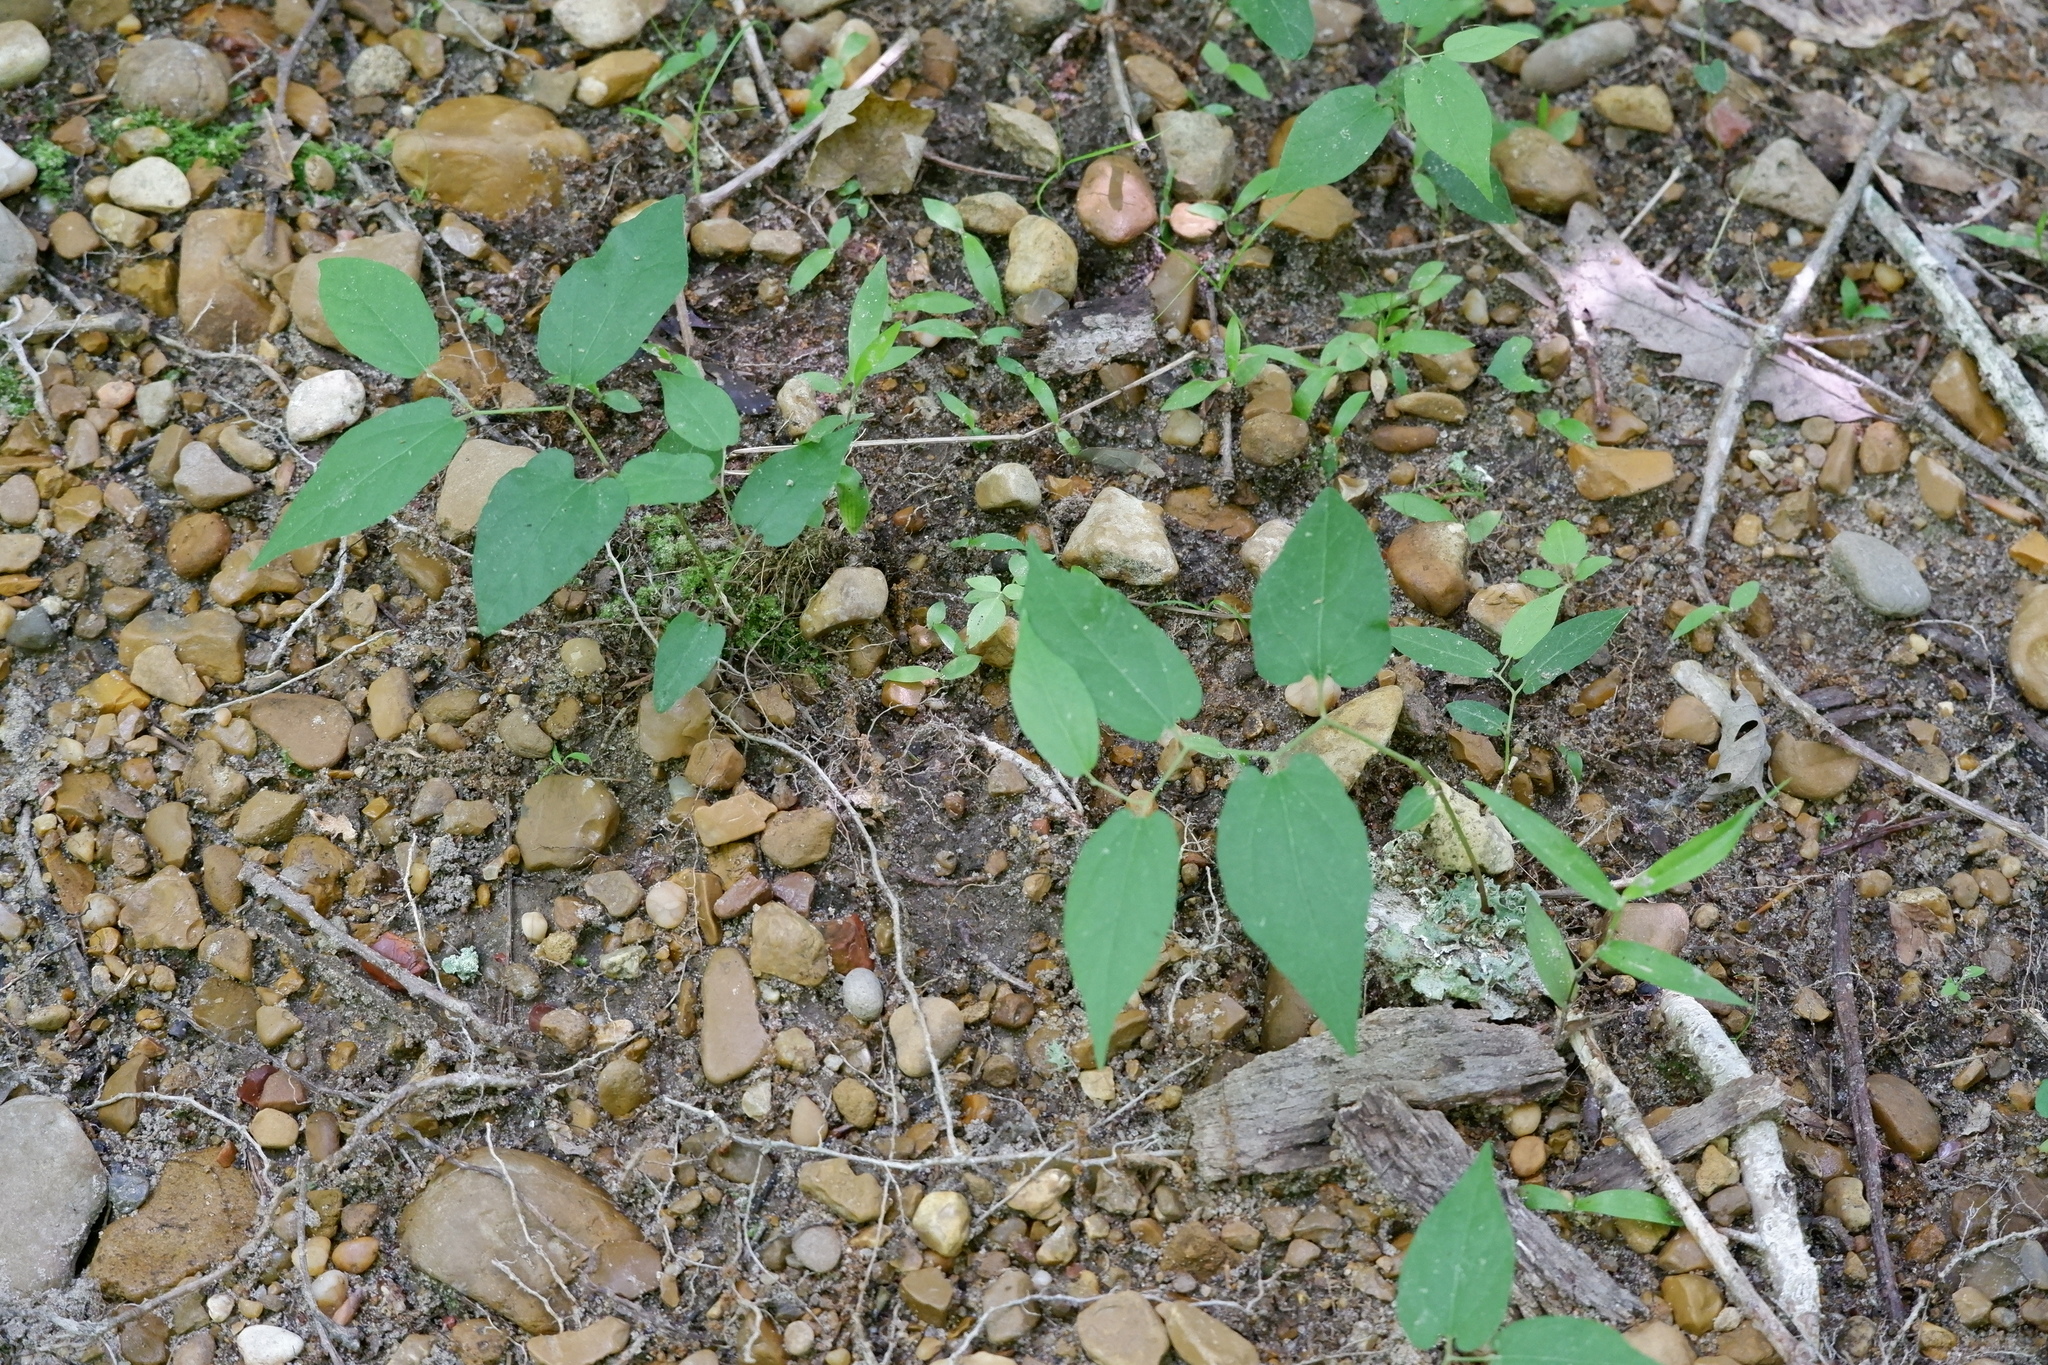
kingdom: Plantae
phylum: Tracheophyta
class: Magnoliopsida
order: Piperales
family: Aristolochiaceae
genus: Endodeca
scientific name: Endodeca serpentaria
